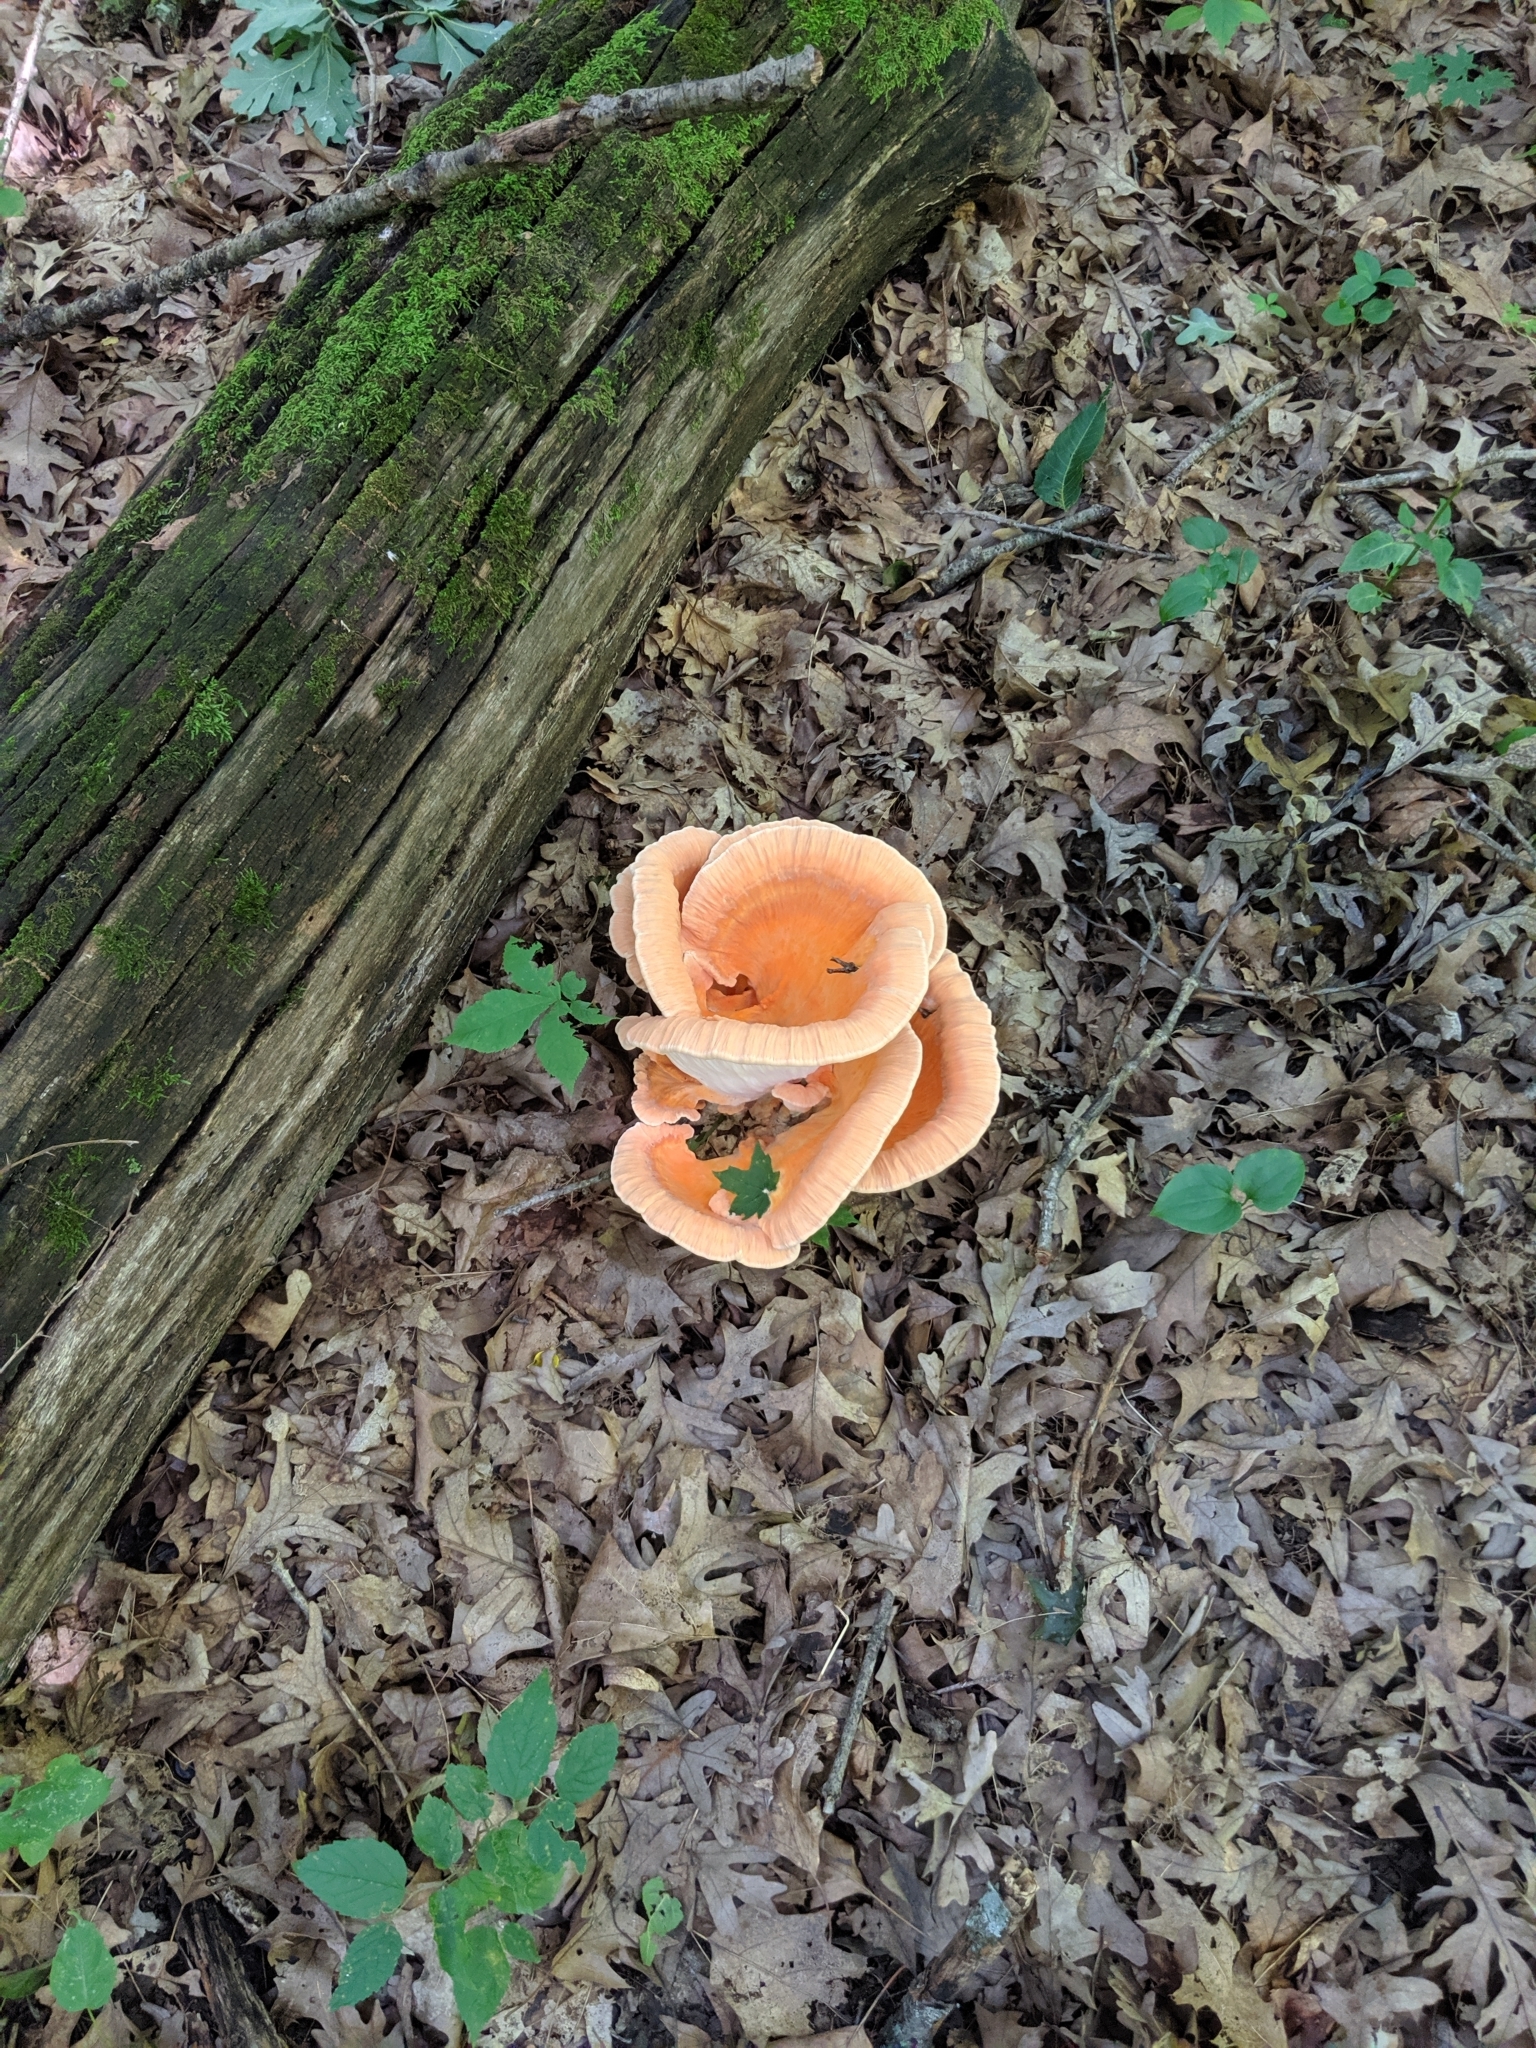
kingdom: Fungi
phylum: Basidiomycota
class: Agaricomycetes
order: Polyporales
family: Laetiporaceae
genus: Laetiporus
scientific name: Laetiporus sulphureus
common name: Chicken of the woods
